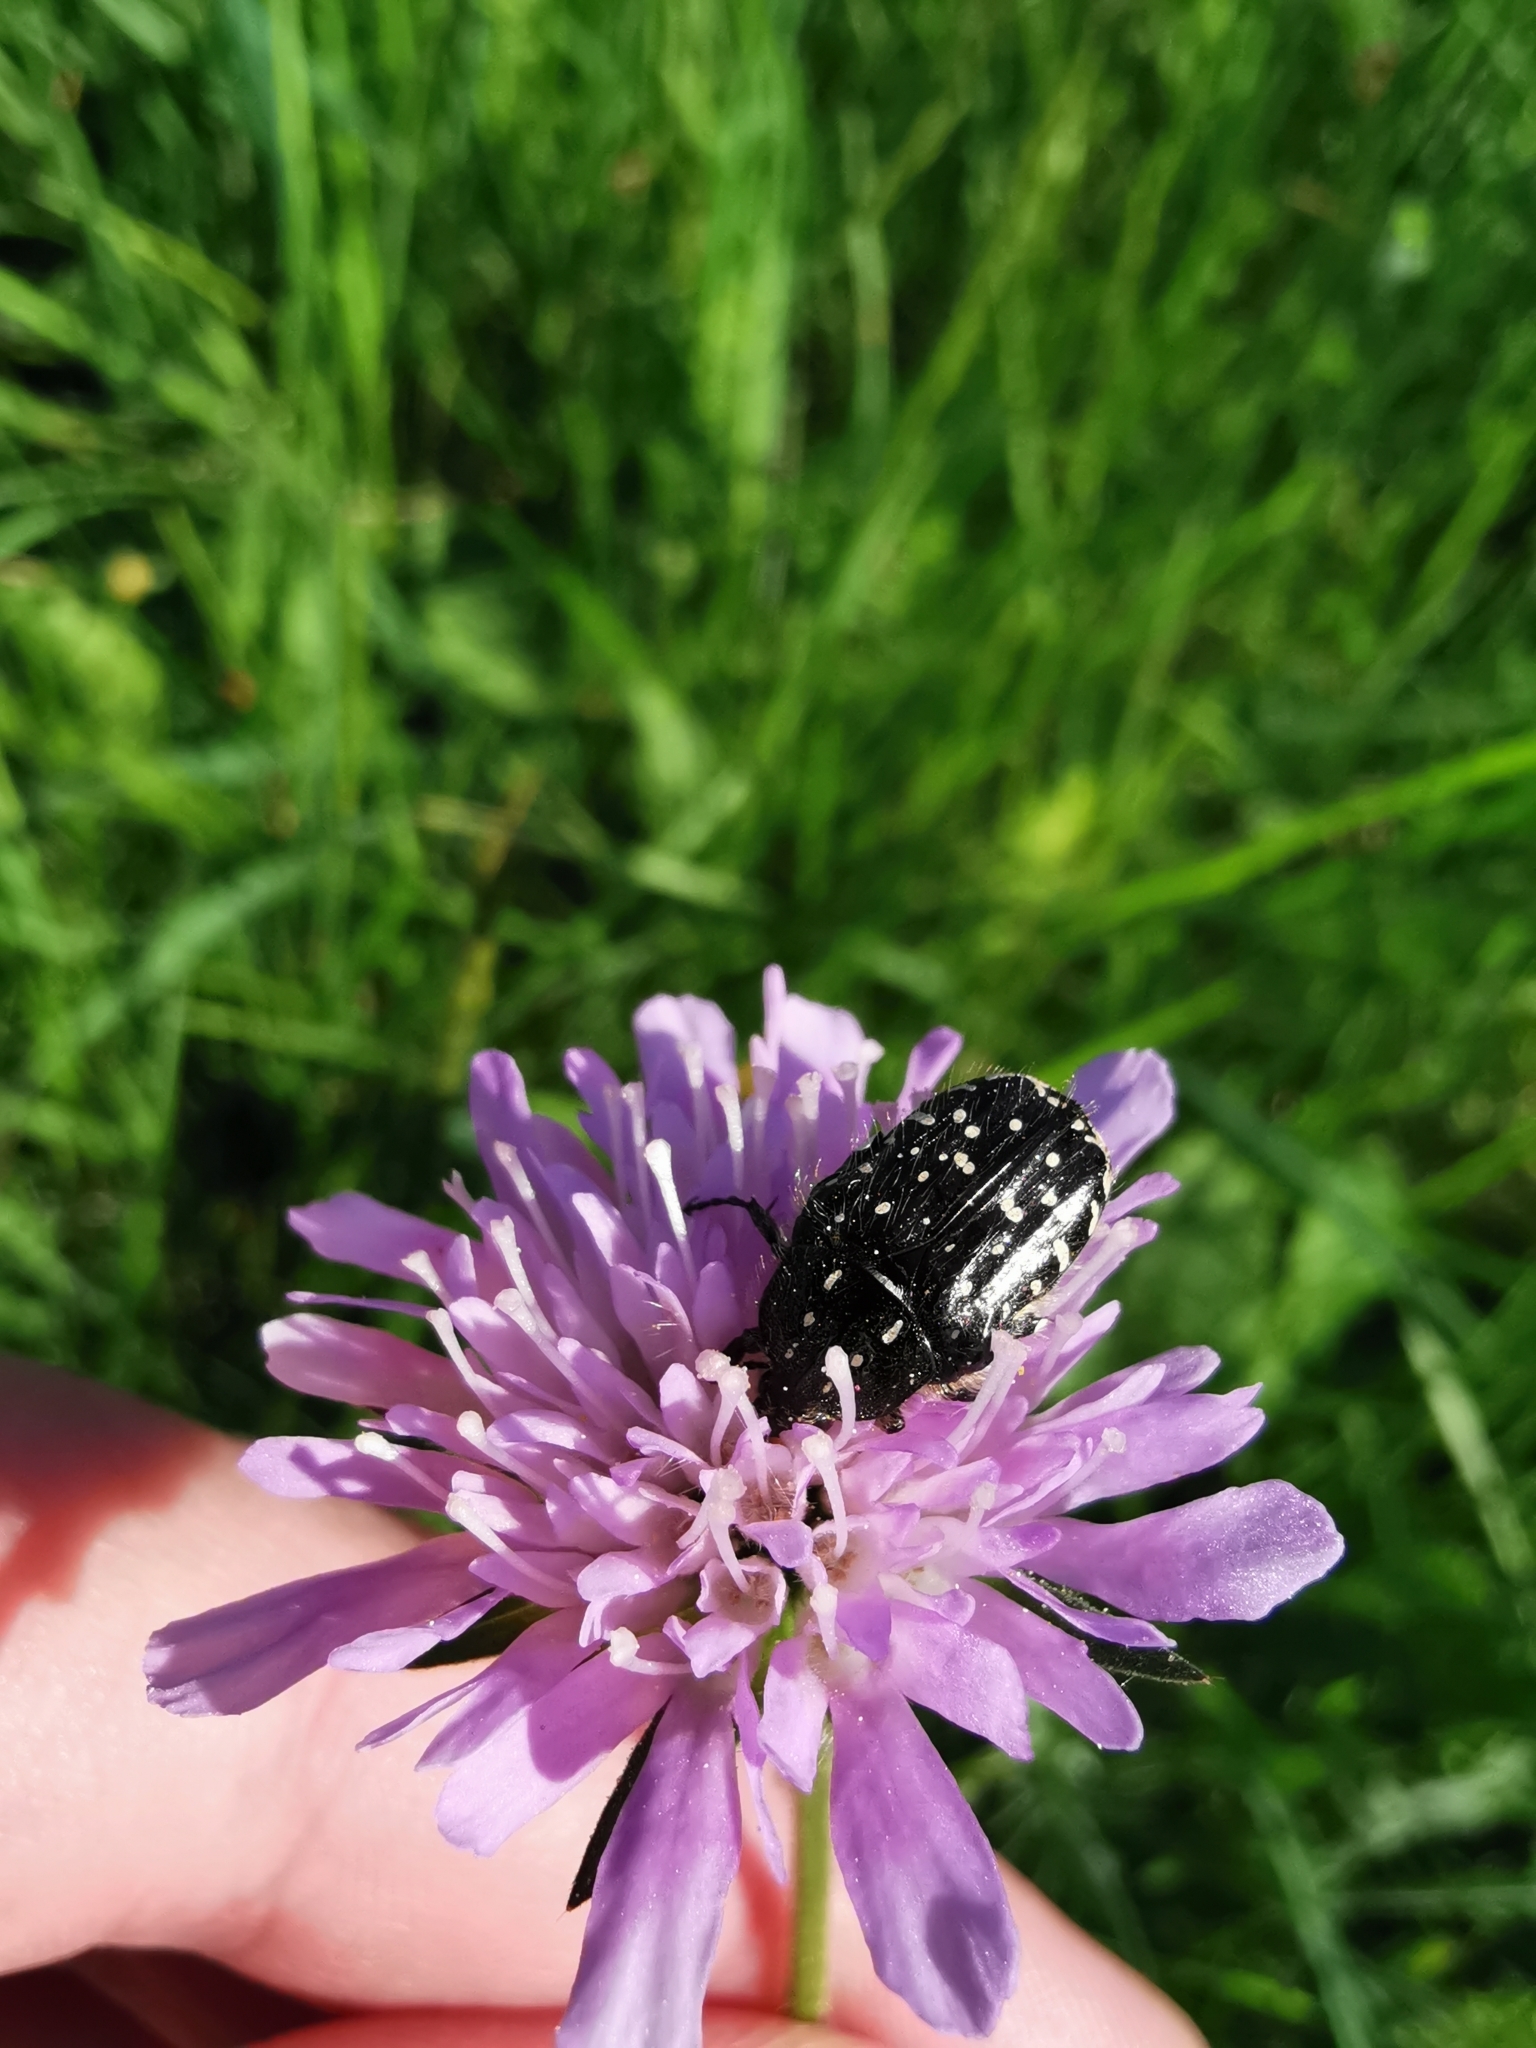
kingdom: Animalia
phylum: Arthropoda
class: Insecta
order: Coleoptera
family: Scarabaeidae
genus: Oxythyrea
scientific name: Oxythyrea funesta
